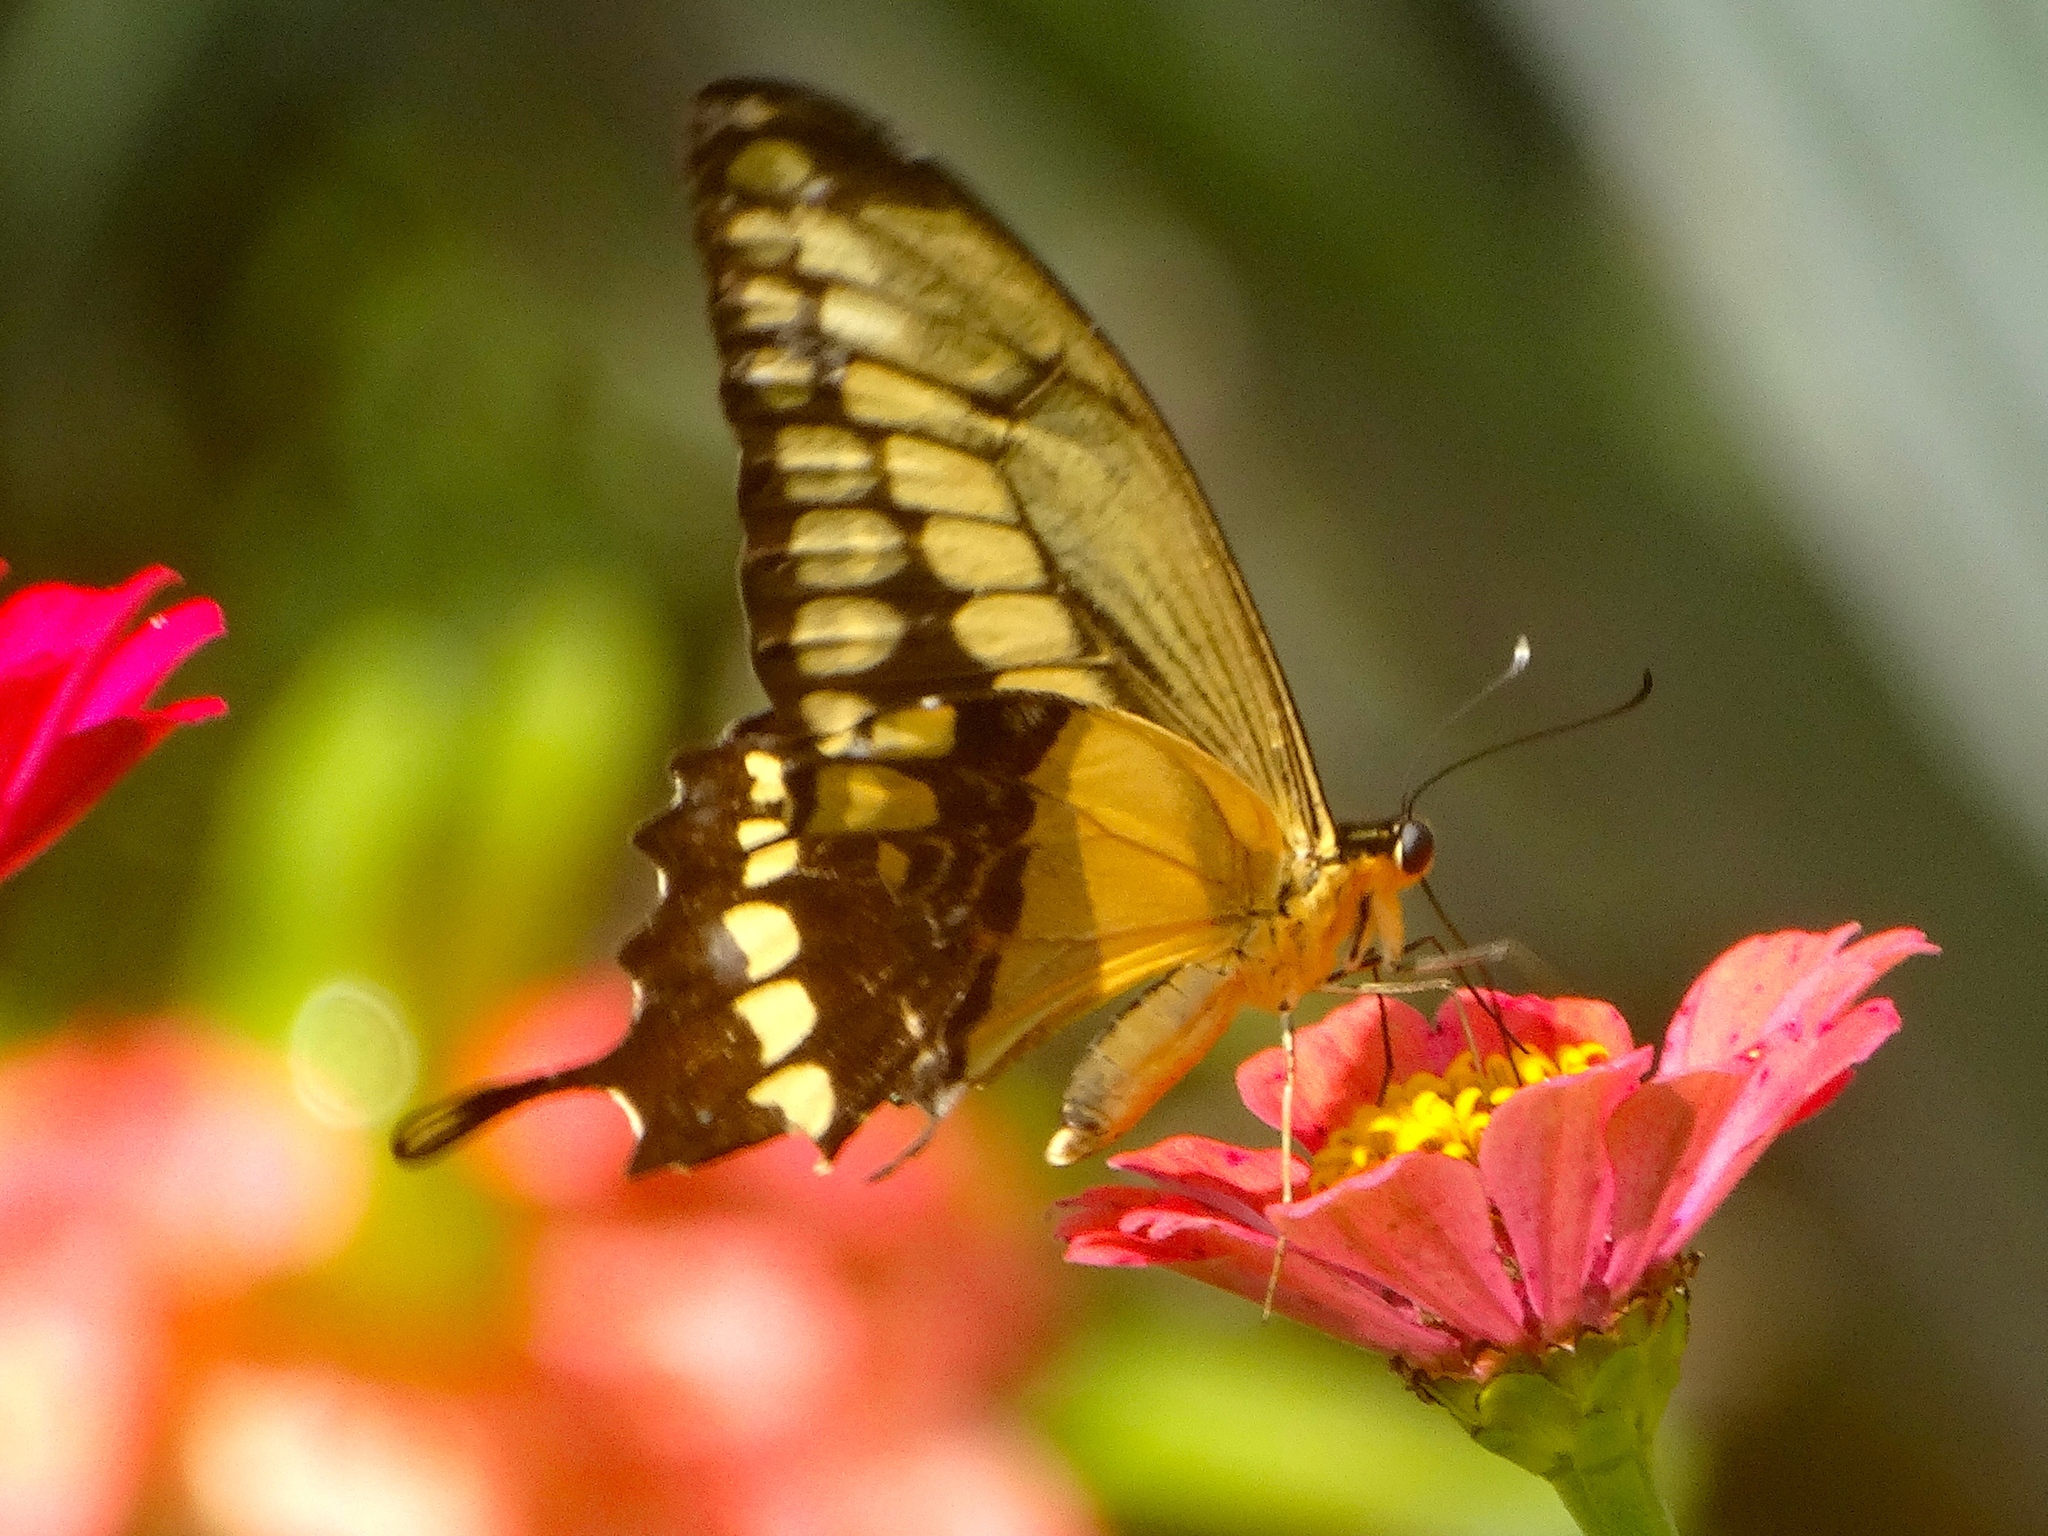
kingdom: Animalia
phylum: Arthropoda
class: Insecta
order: Lepidoptera
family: Papilionidae
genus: Papilio
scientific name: Papilio rumiko
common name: Western giant swallowtail
